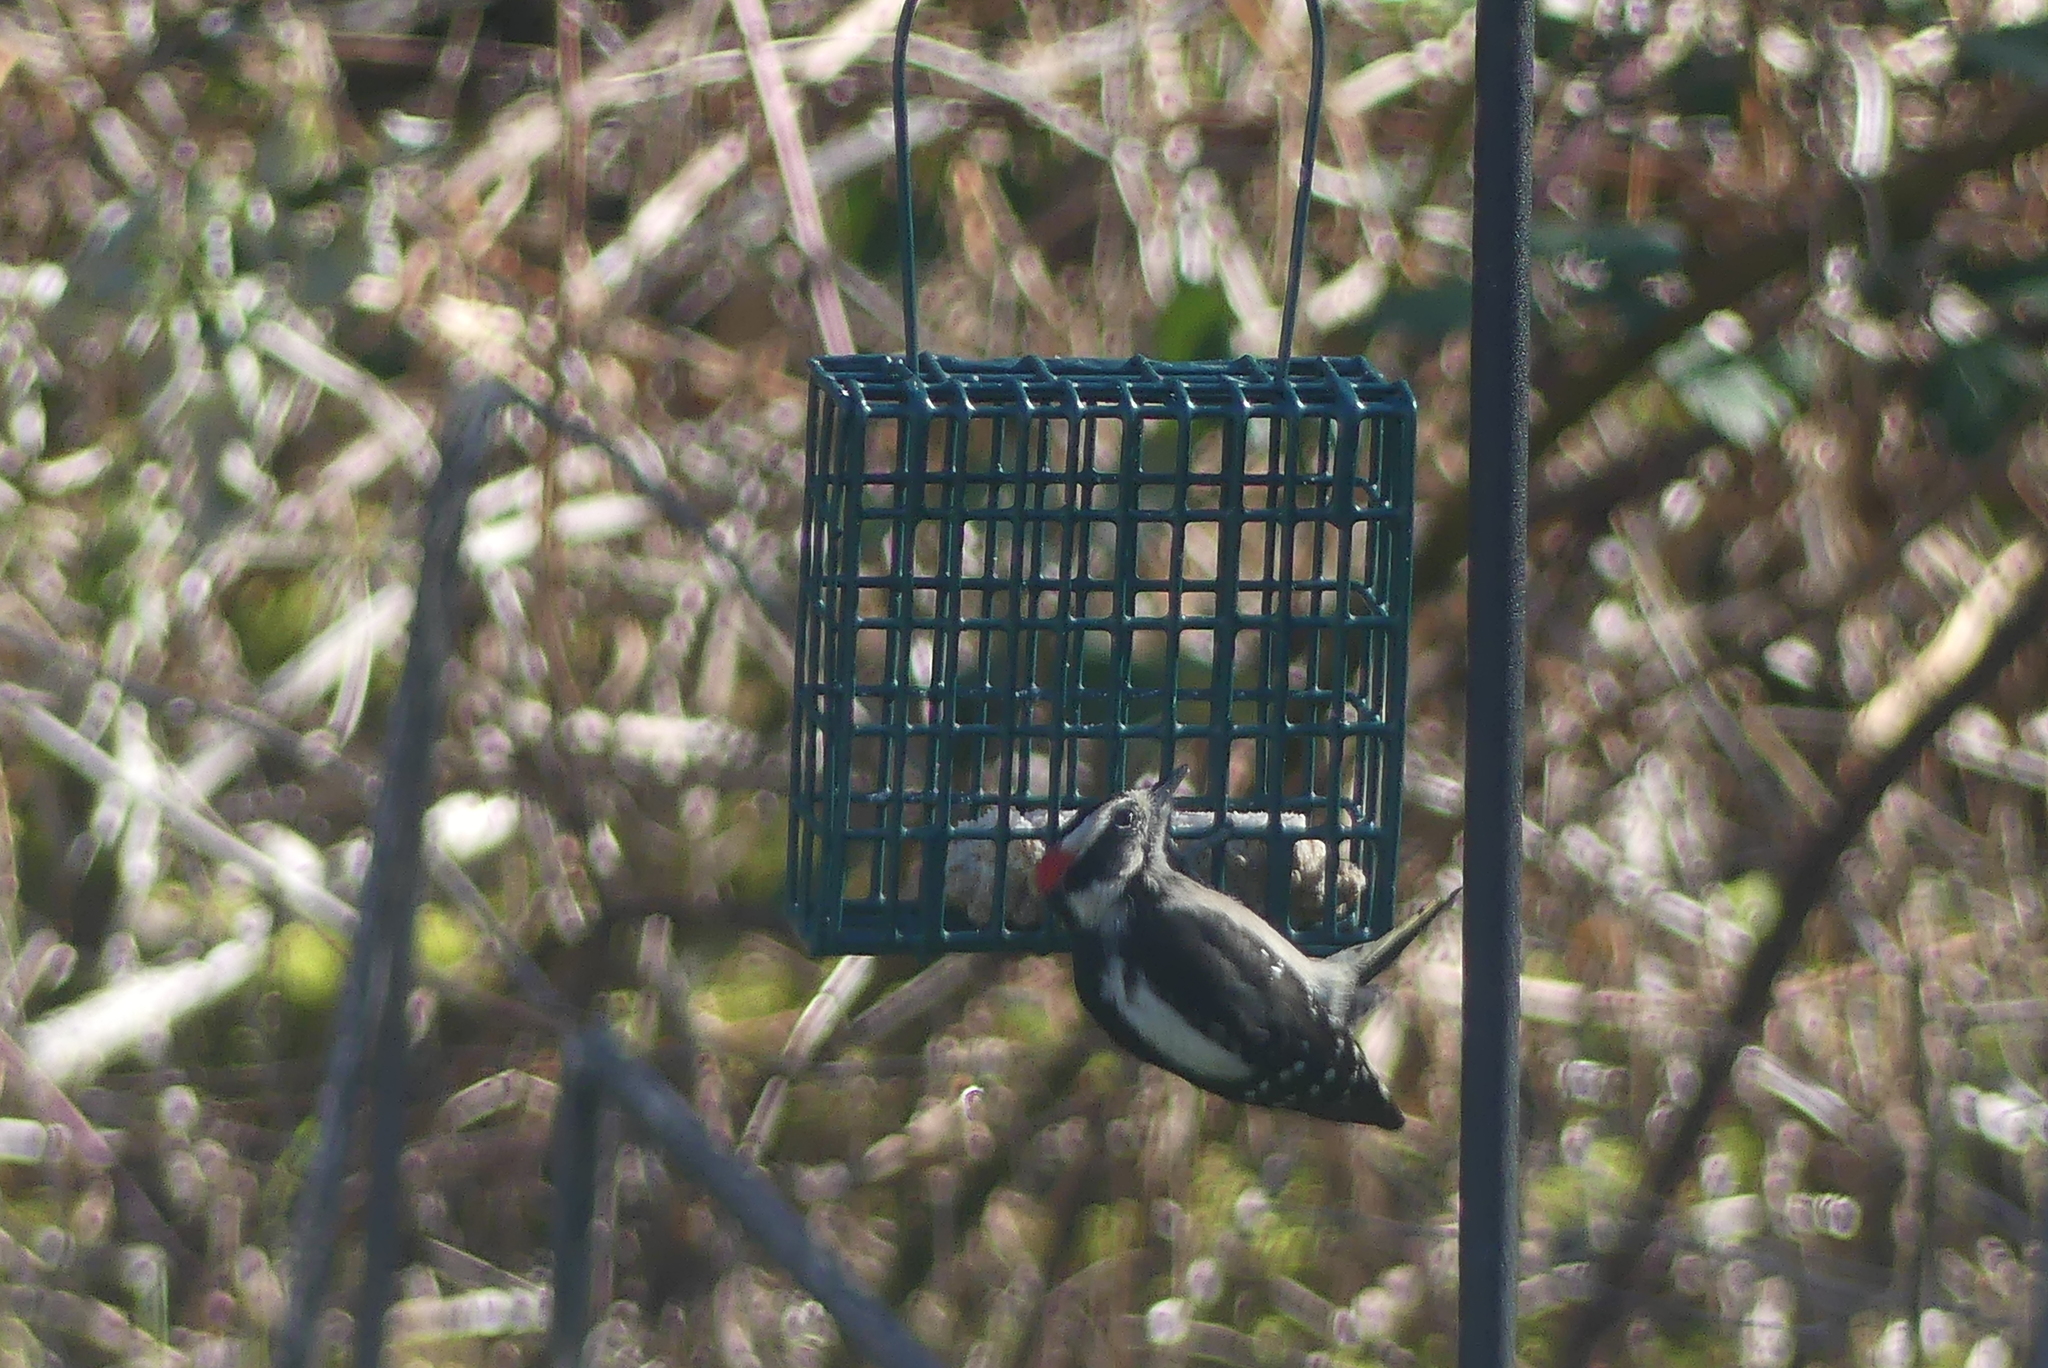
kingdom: Animalia
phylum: Chordata
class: Aves
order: Piciformes
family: Picidae
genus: Dryobates
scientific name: Dryobates pubescens
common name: Downy woodpecker
